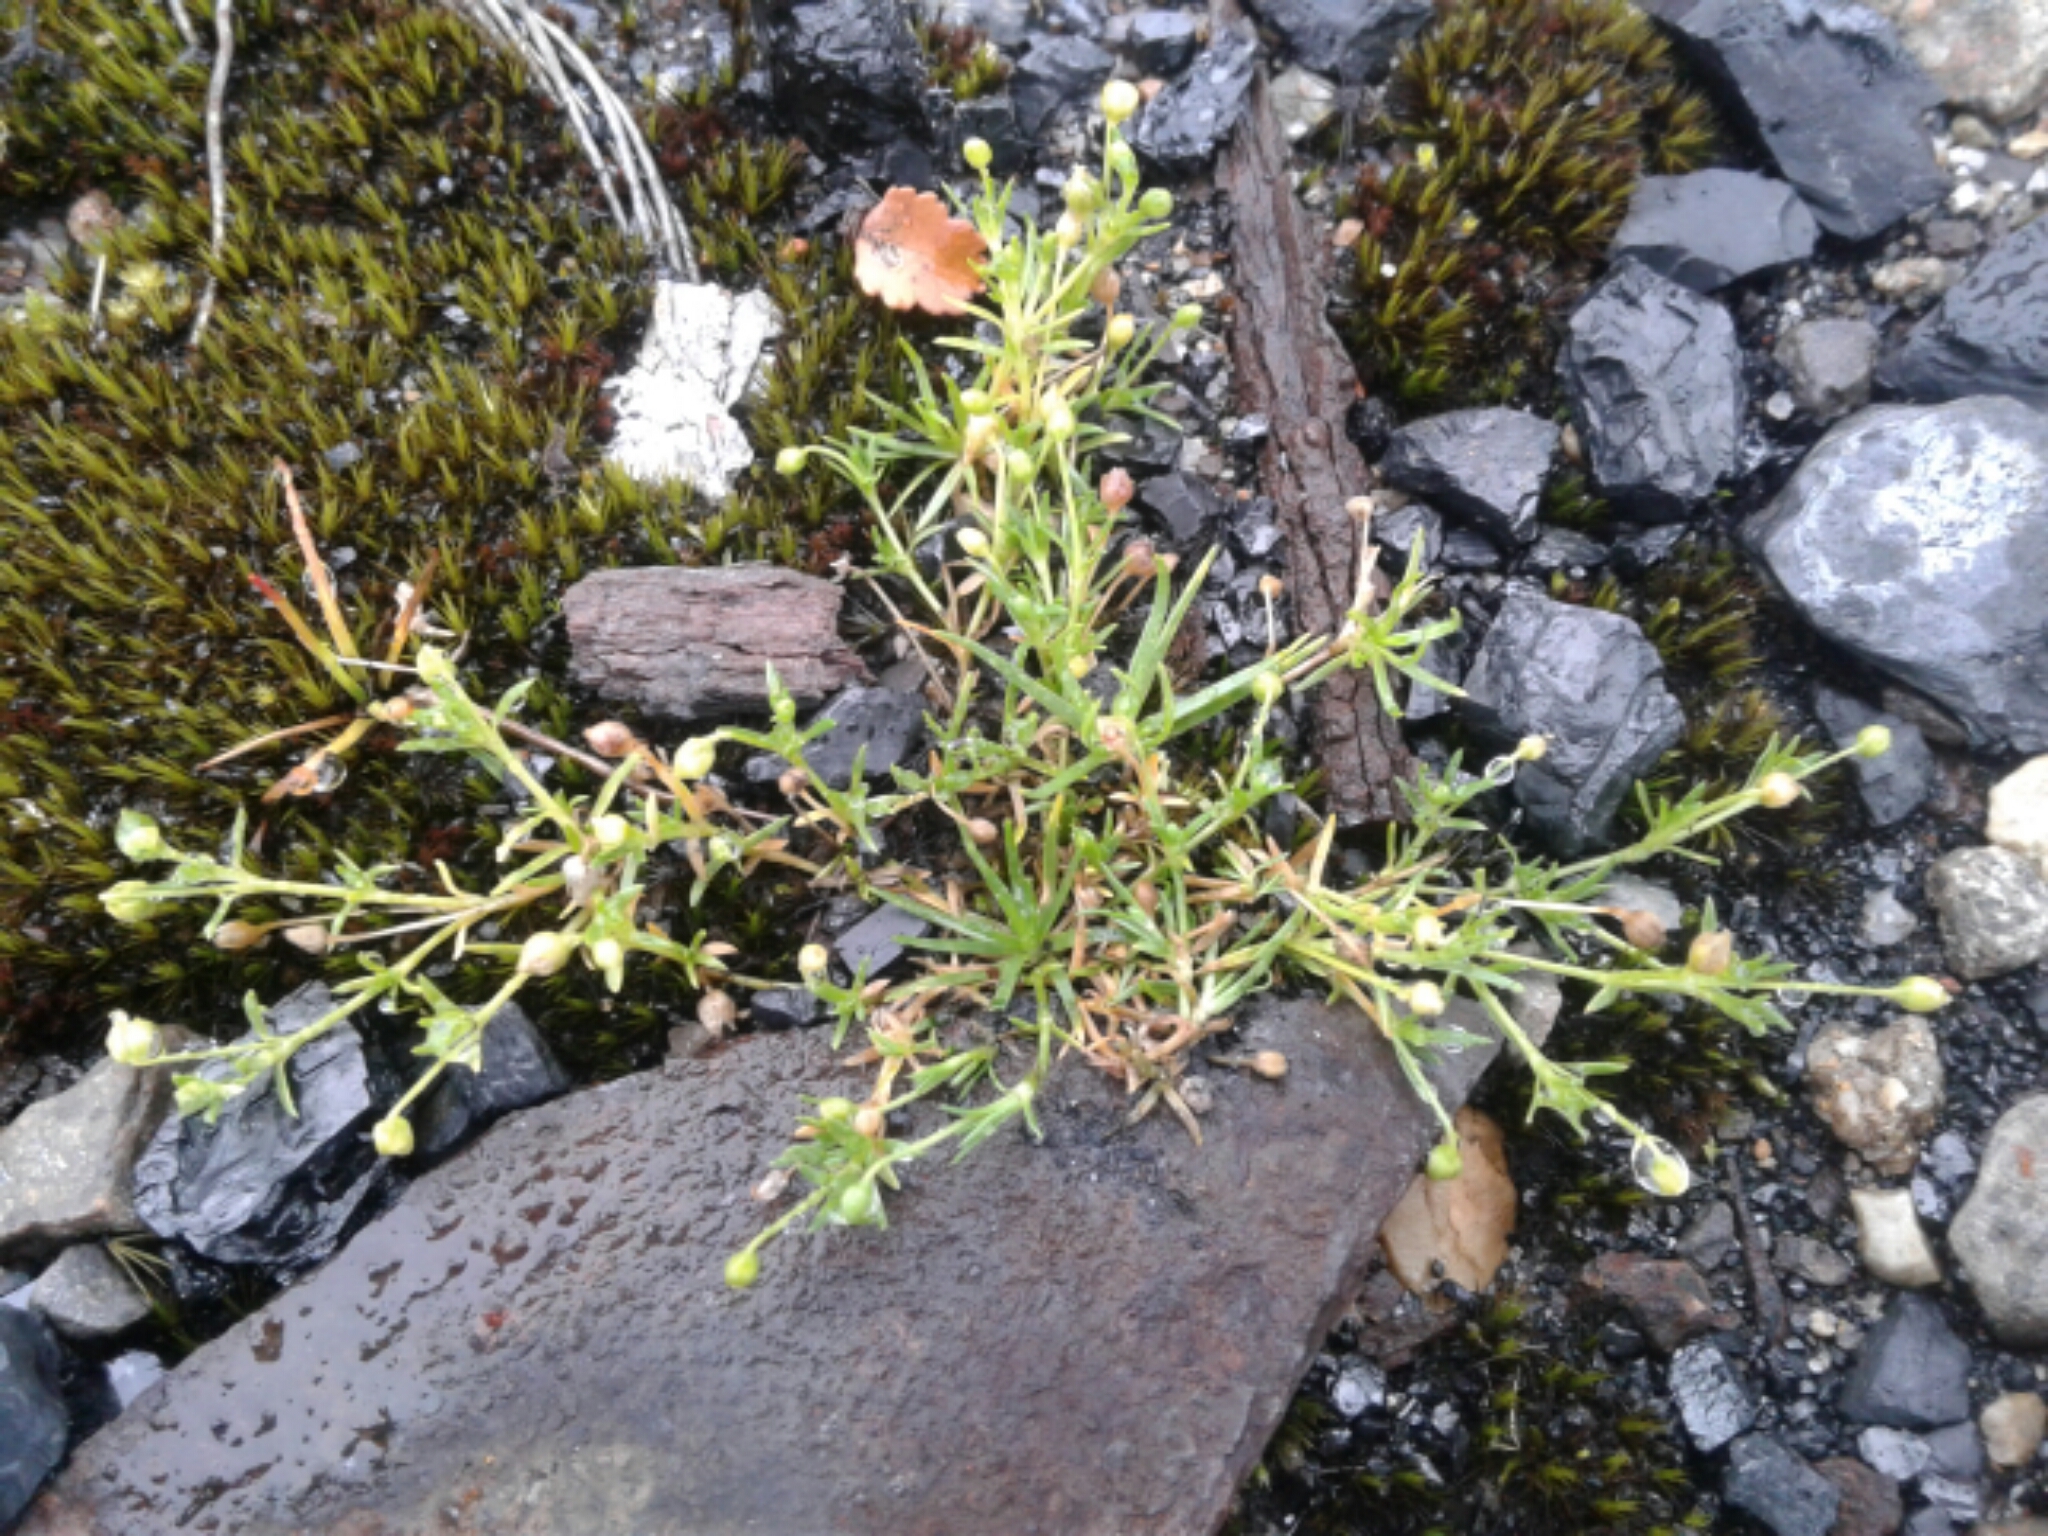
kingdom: Plantae
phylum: Tracheophyta
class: Magnoliopsida
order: Caryophyllales
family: Caryophyllaceae
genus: Sagina
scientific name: Sagina procumbens
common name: Procumbent pearlwort
